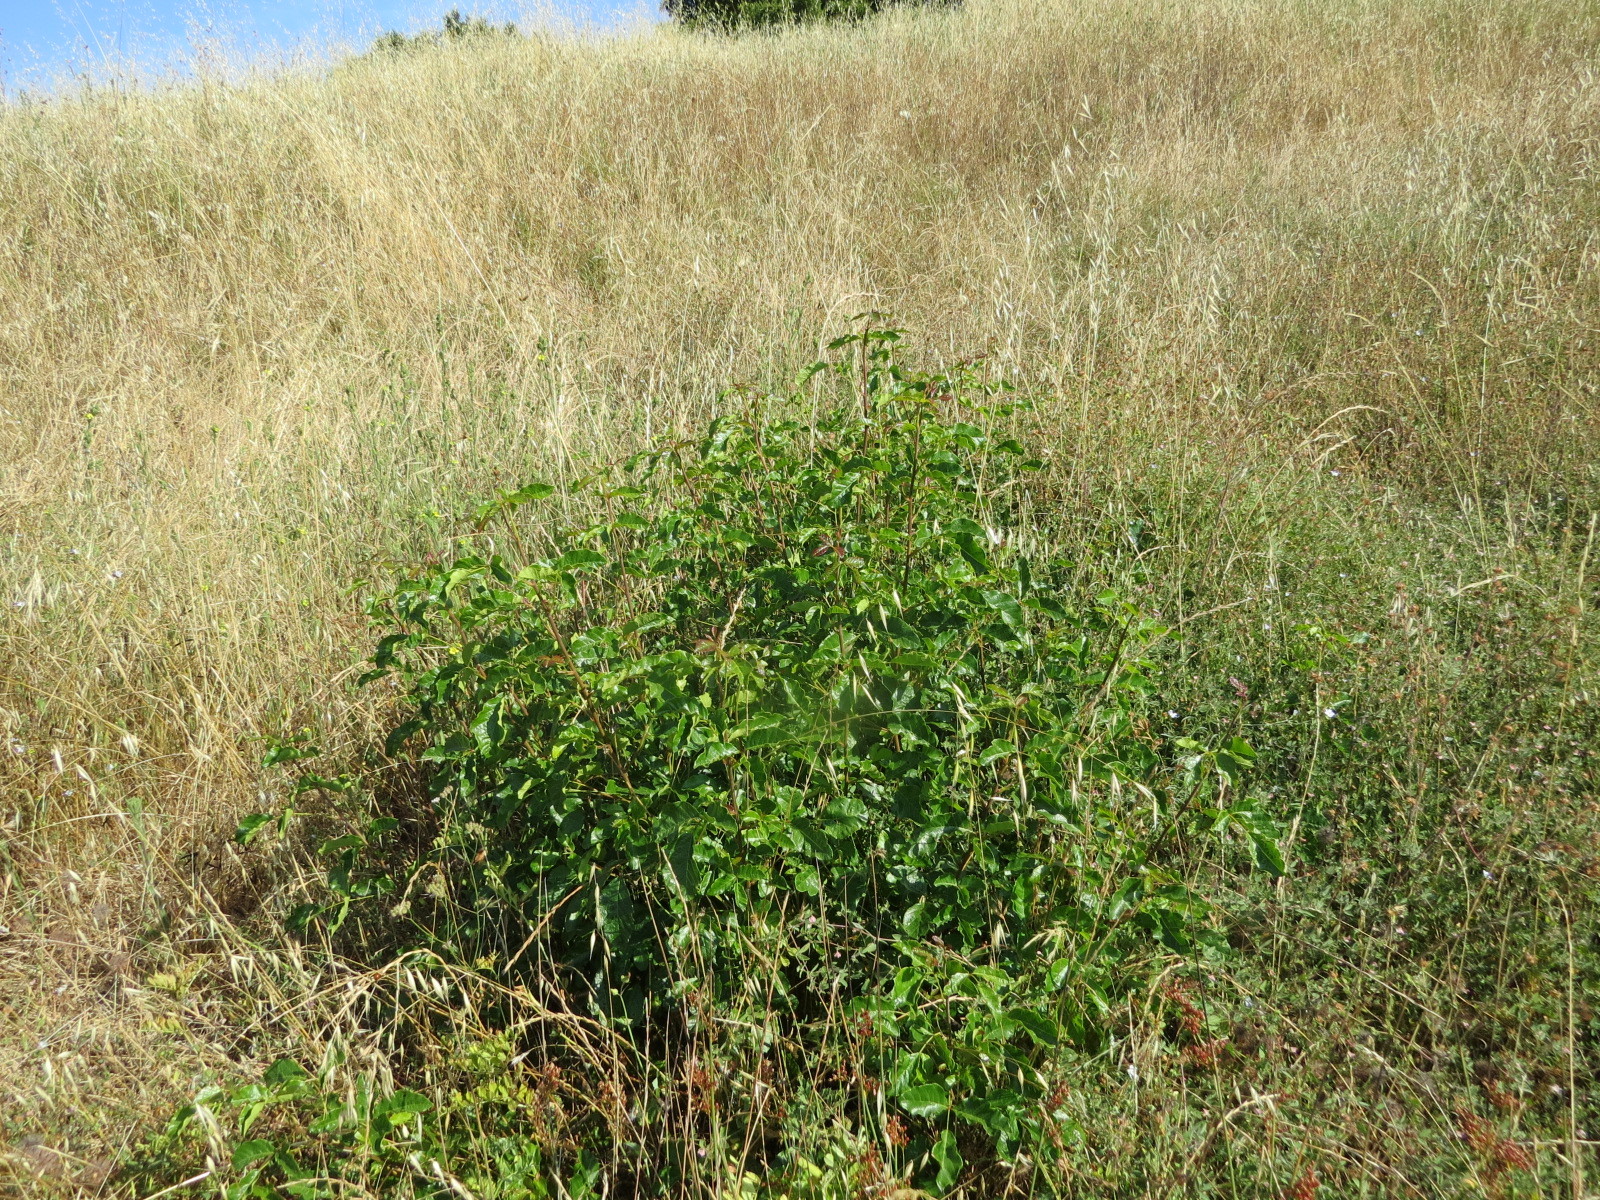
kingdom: Plantae
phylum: Tracheophyta
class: Magnoliopsida
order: Sapindales
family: Anacardiaceae
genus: Toxicodendron
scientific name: Toxicodendron diversilobum
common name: Pacific poison-oak
